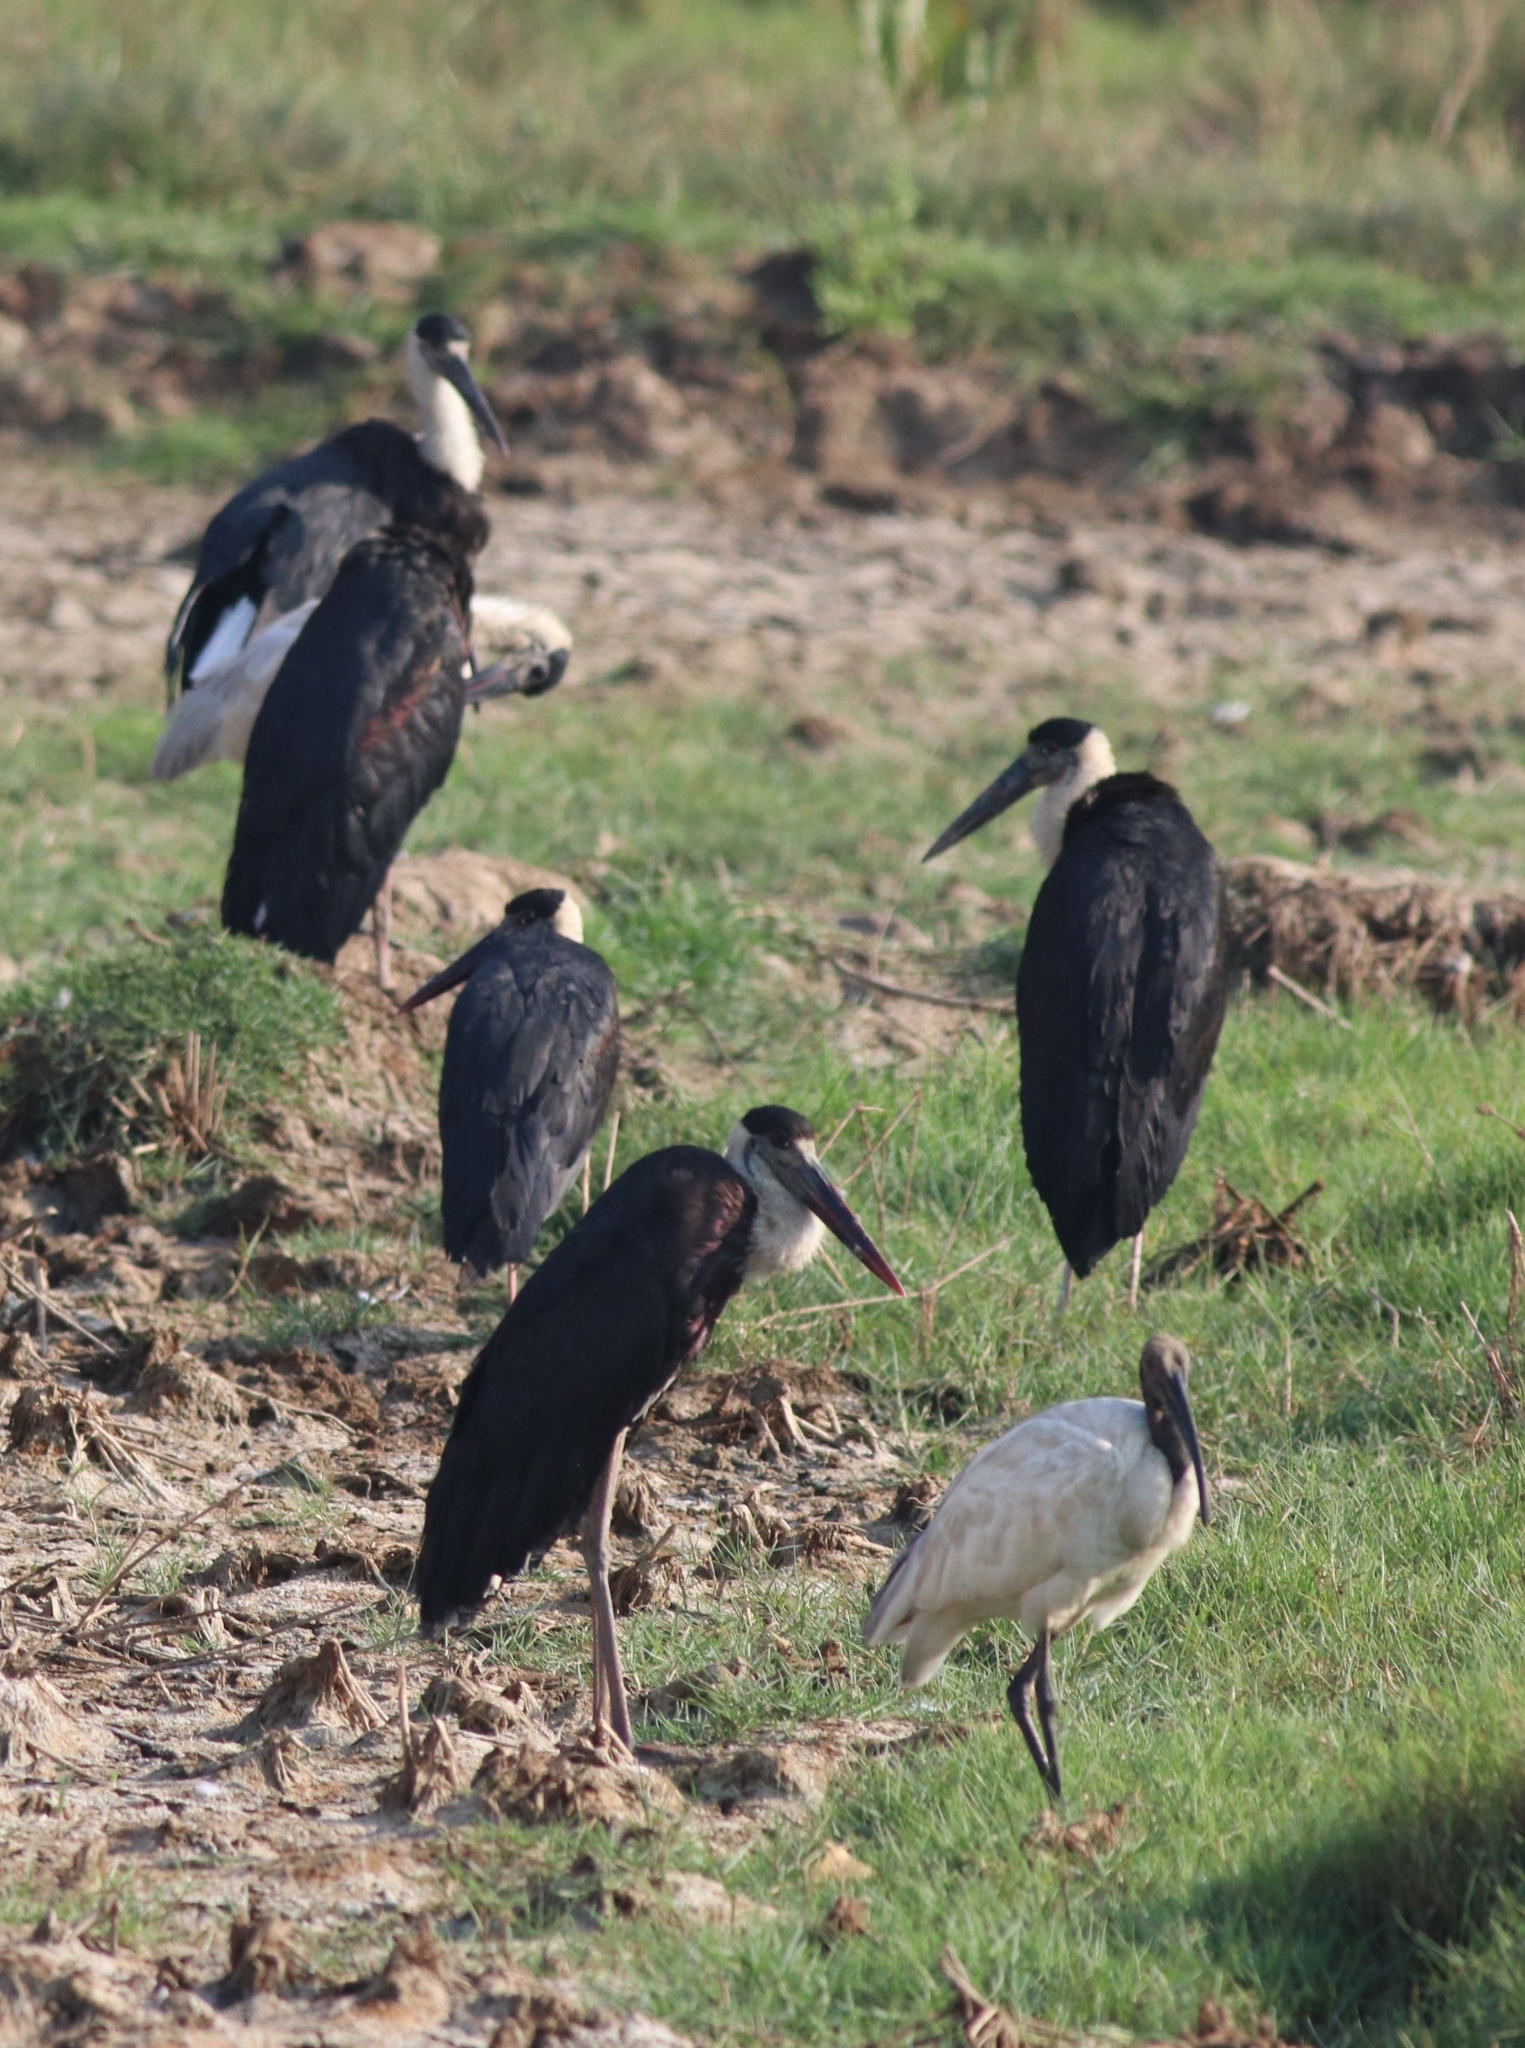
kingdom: Animalia
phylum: Chordata
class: Aves
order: Pelecaniformes
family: Threskiornithidae
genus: Threskiornis
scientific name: Threskiornis melanocephalus
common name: Black-headed ibis
